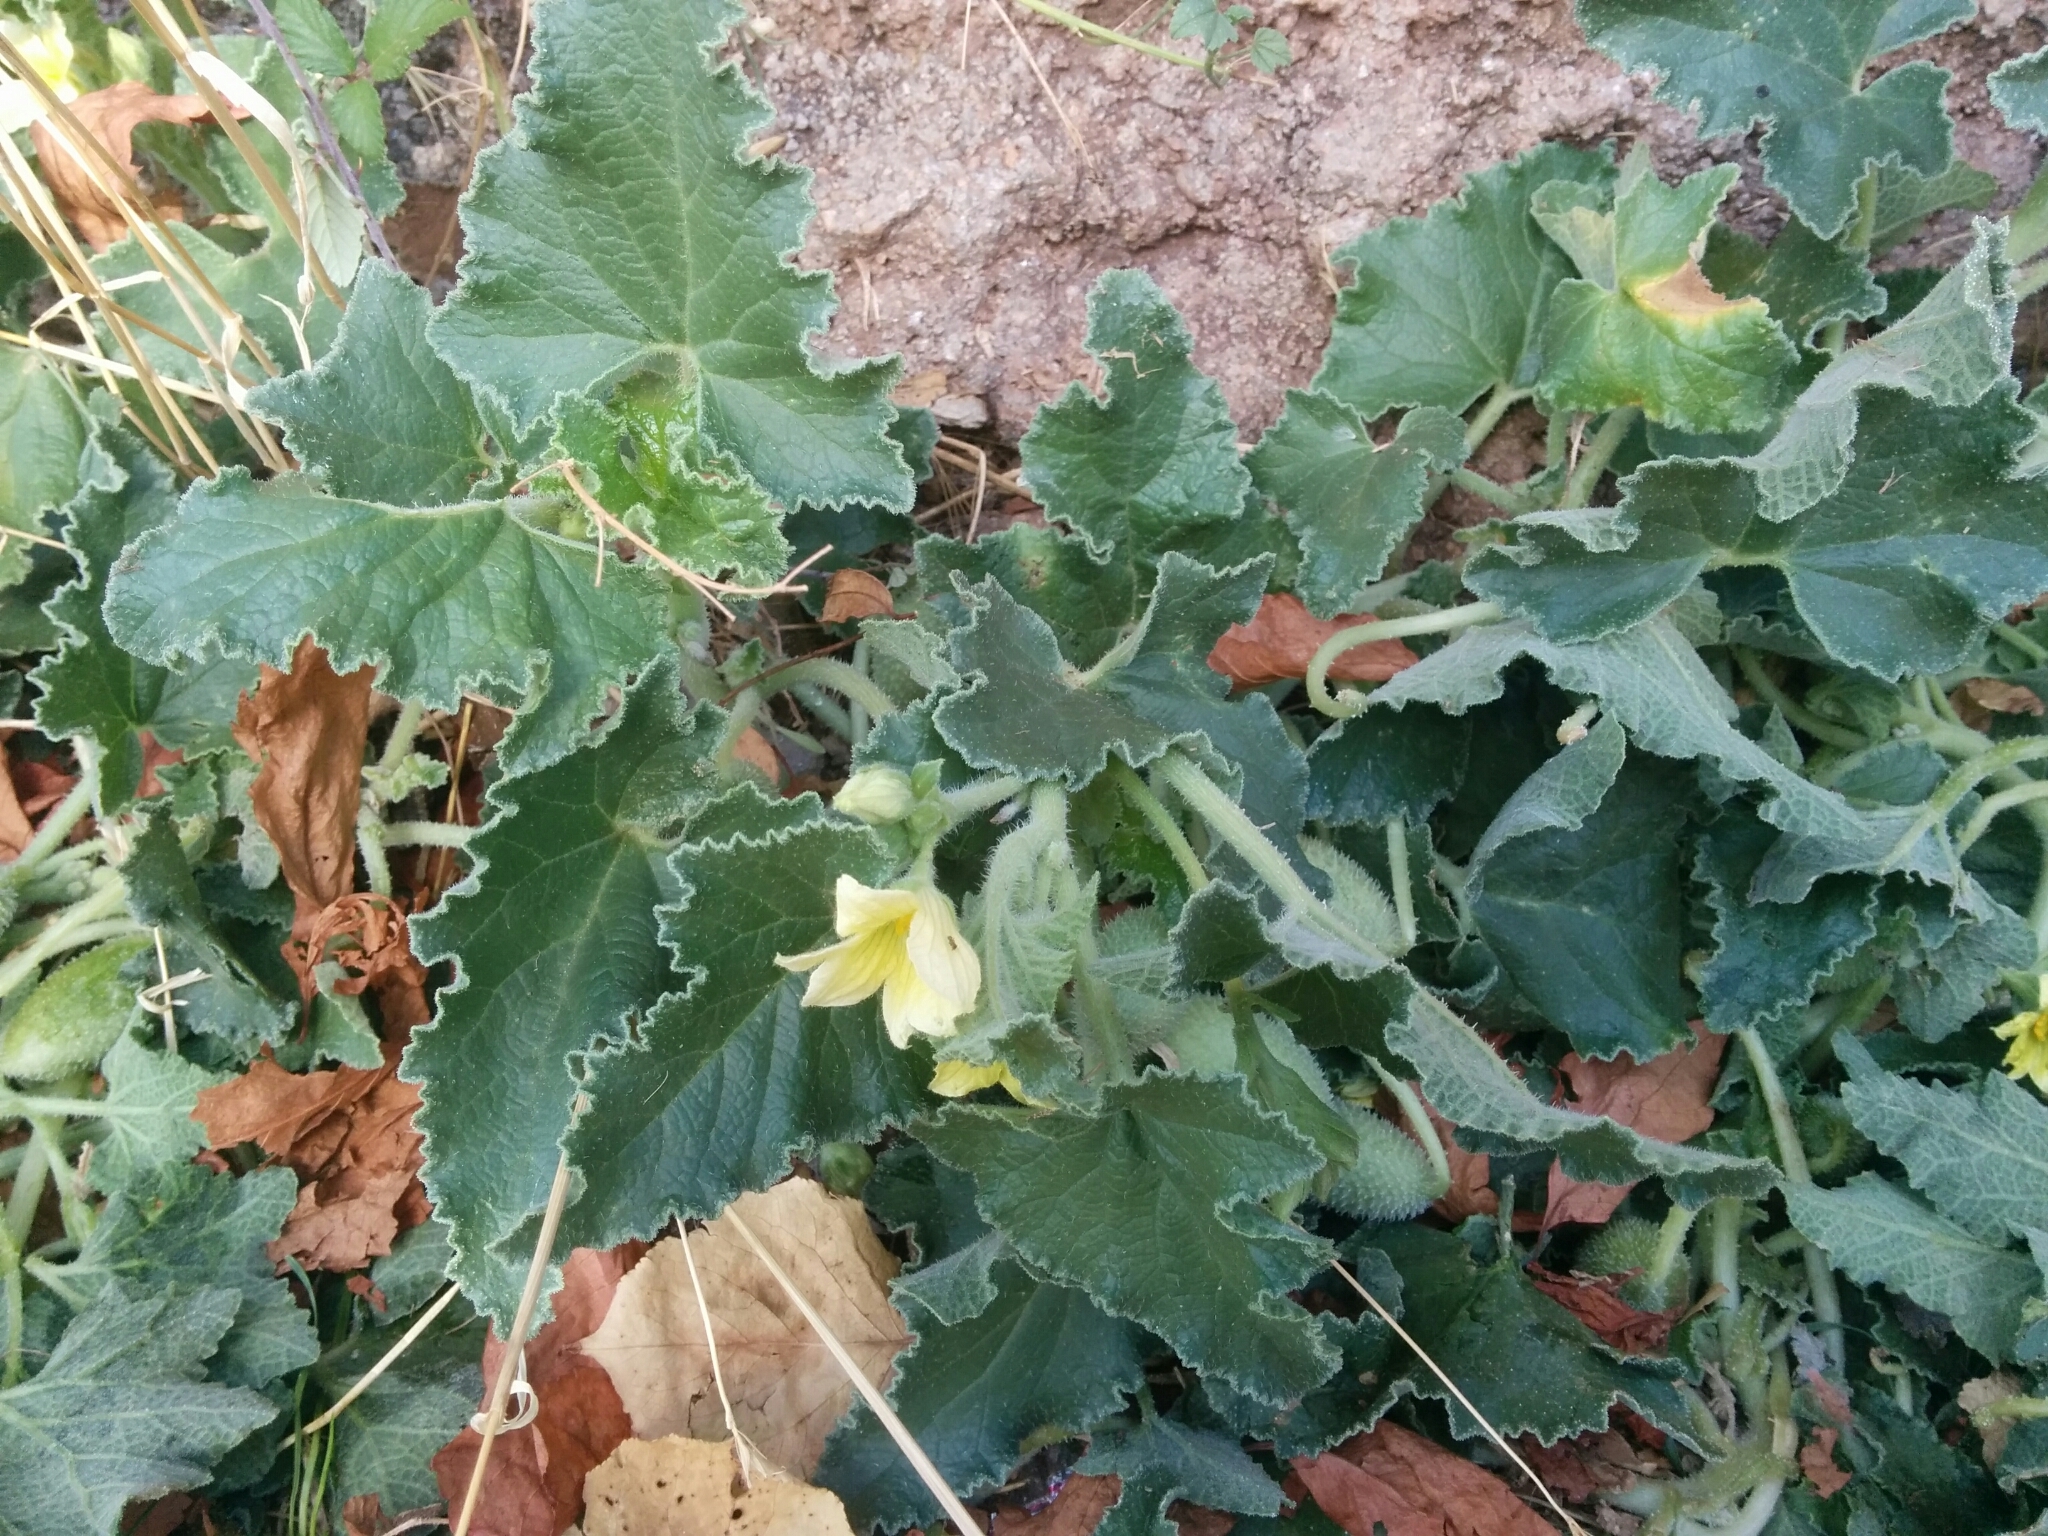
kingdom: Plantae
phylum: Tracheophyta
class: Magnoliopsida
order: Cucurbitales
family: Cucurbitaceae
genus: Ecballium
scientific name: Ecballium elaterium
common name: Squirting cucumber
